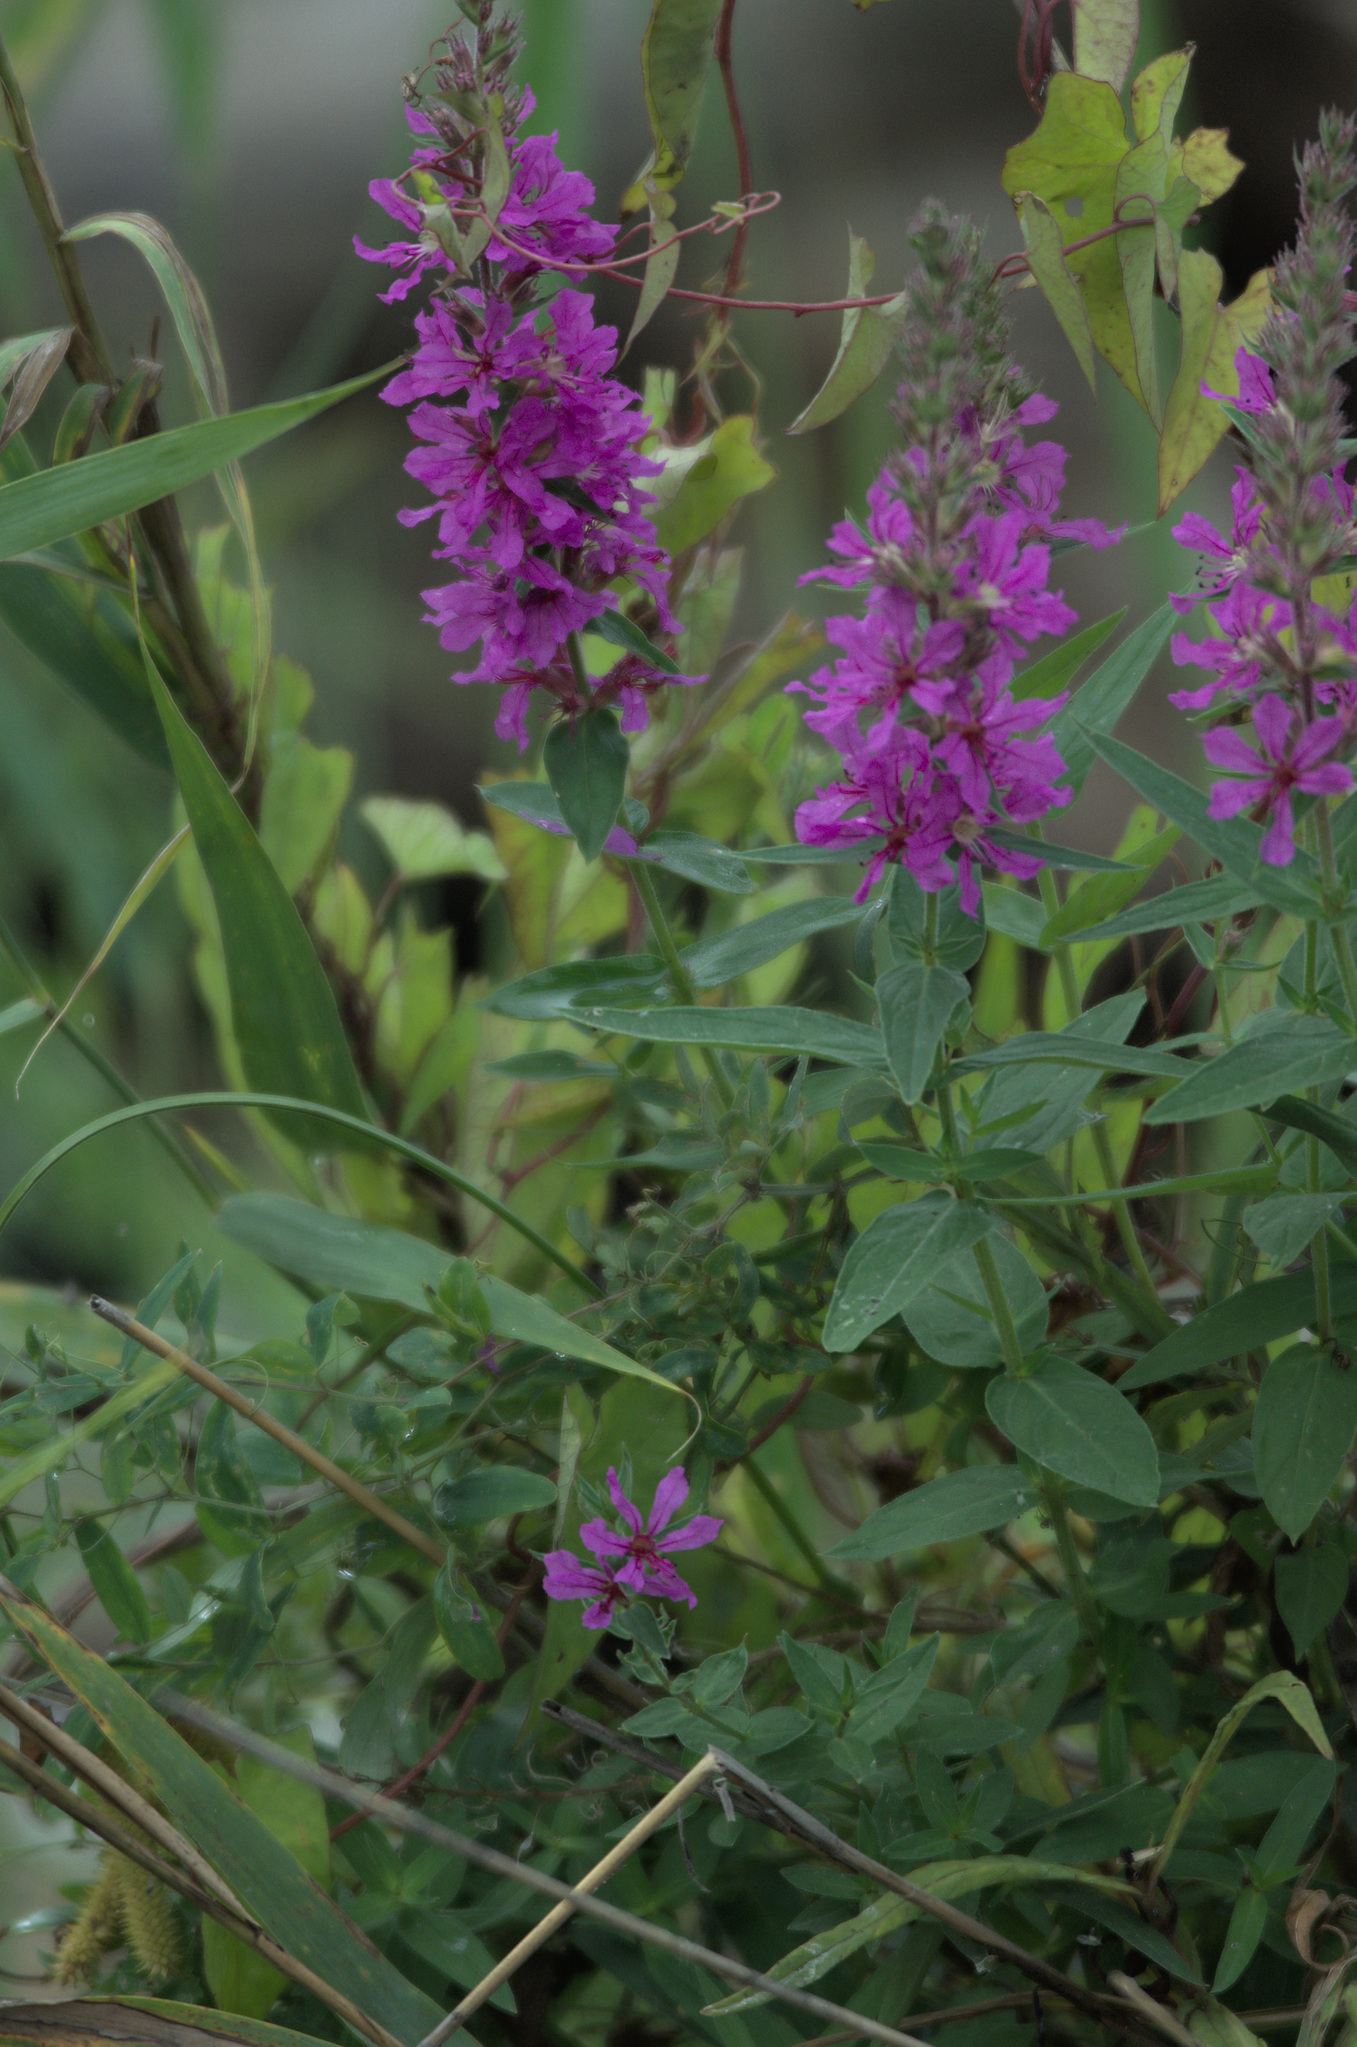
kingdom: Plantae
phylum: Tracheophyta
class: Magnoliopsida
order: Myrtales
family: Lythraceae
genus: Lythrum
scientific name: Lythrum salicaria
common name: Purple loosestrife
